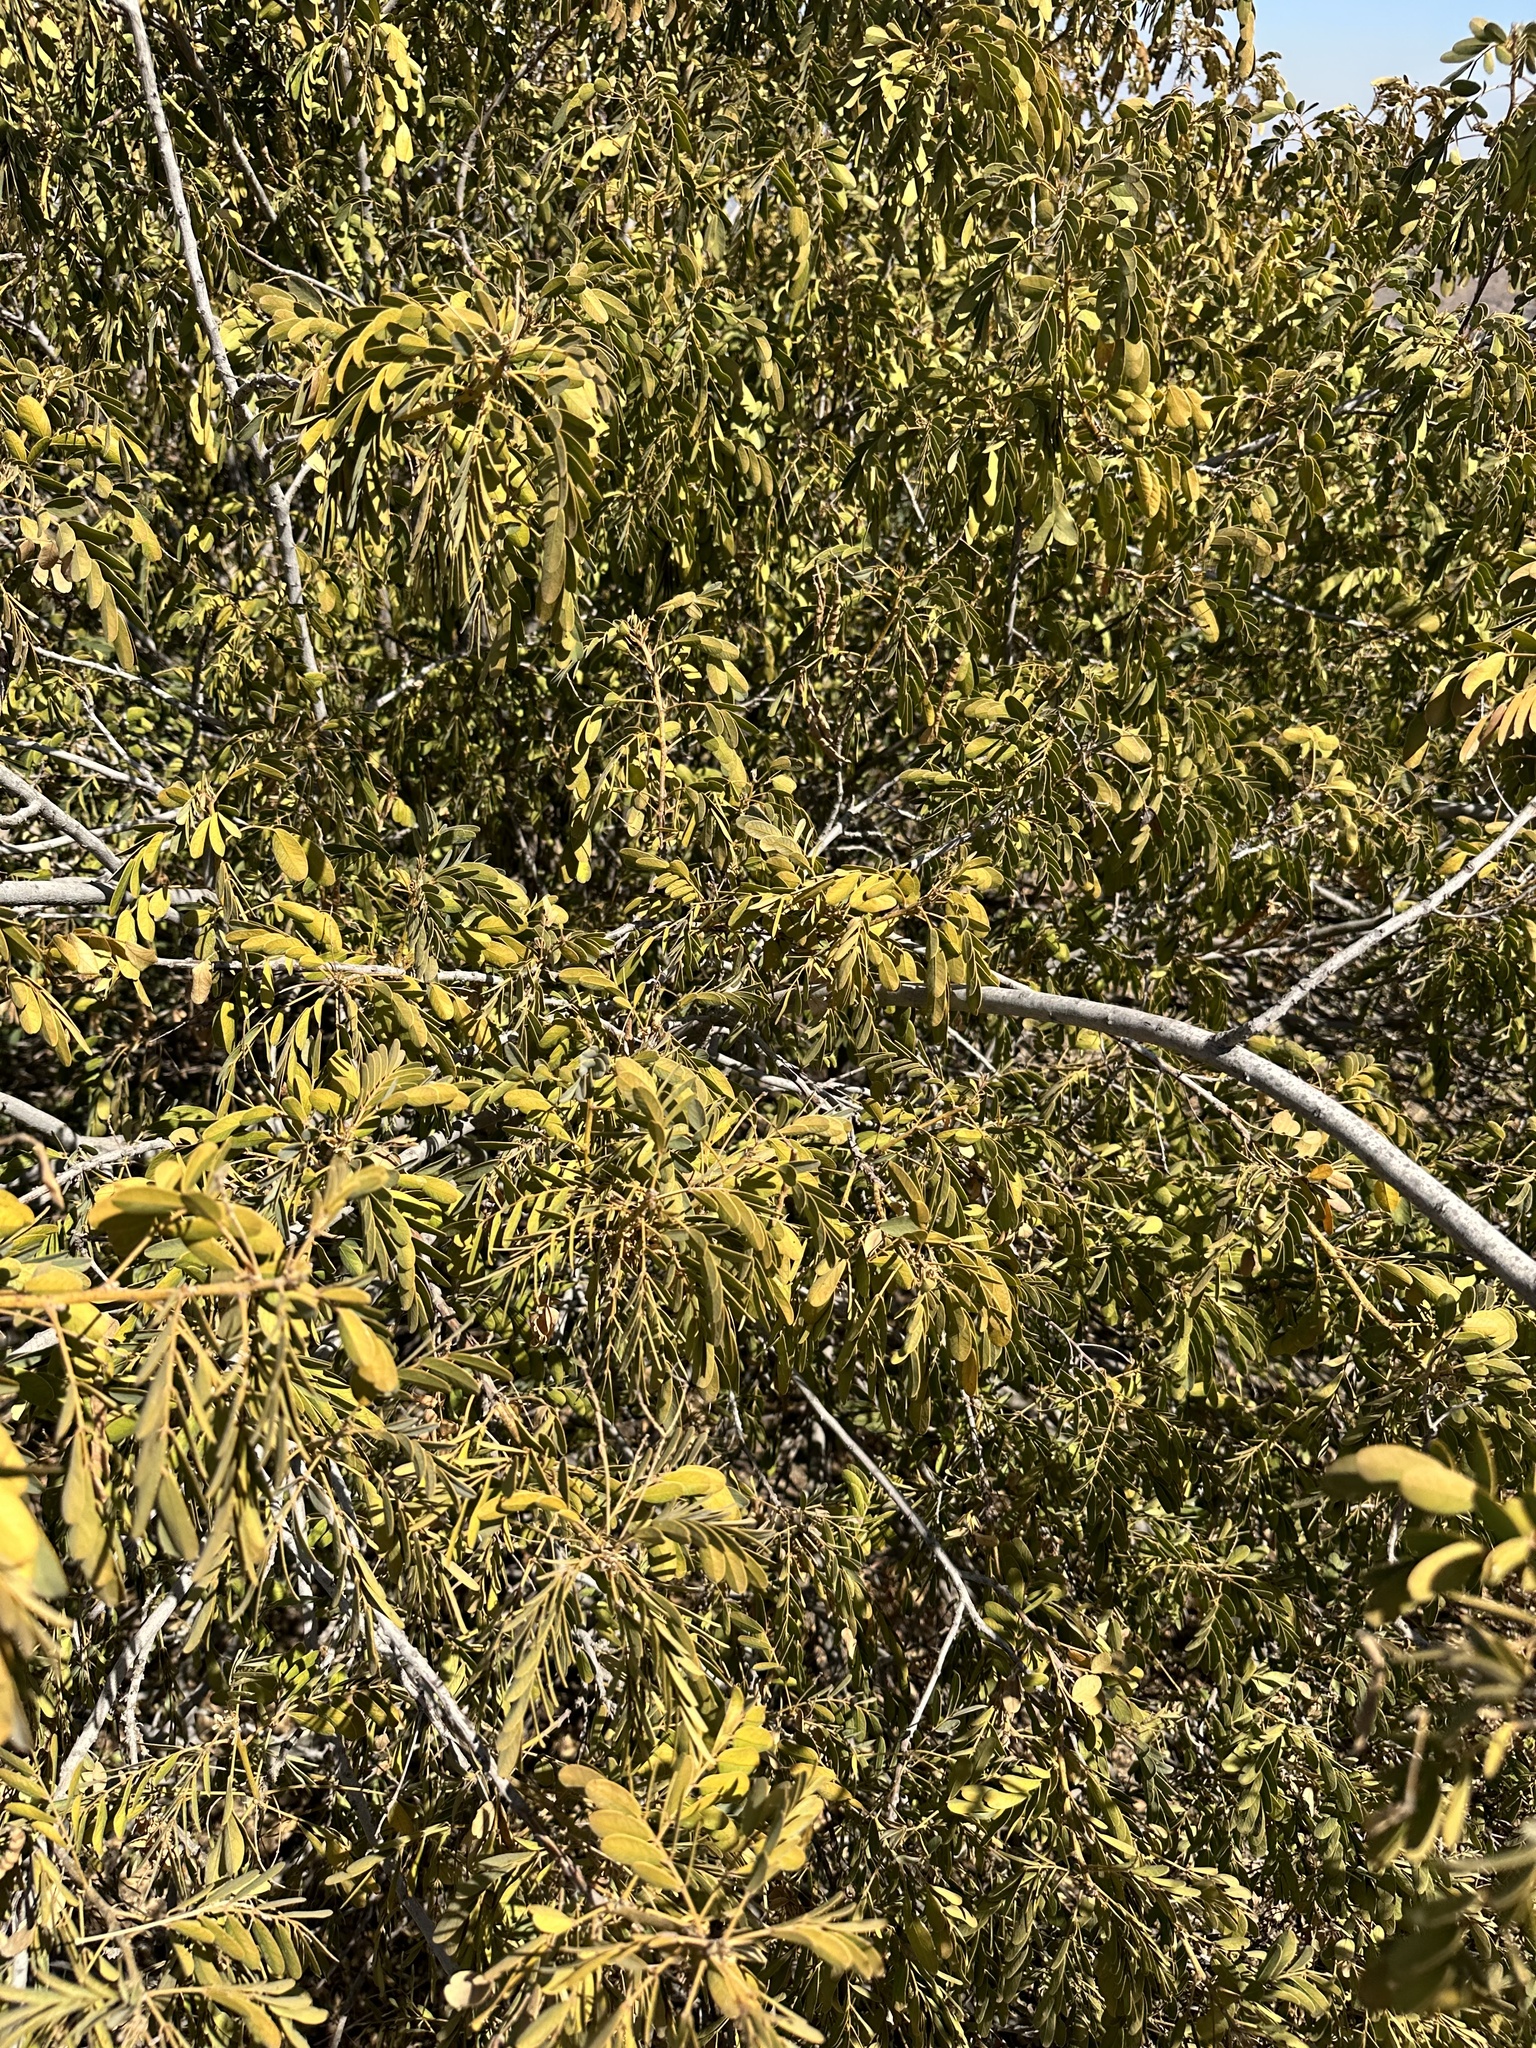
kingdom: Plantae
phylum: Tracheophyta
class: Magnoliopsida
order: Fabales
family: Fabaceae
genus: Senna
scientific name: Senna candolleana
